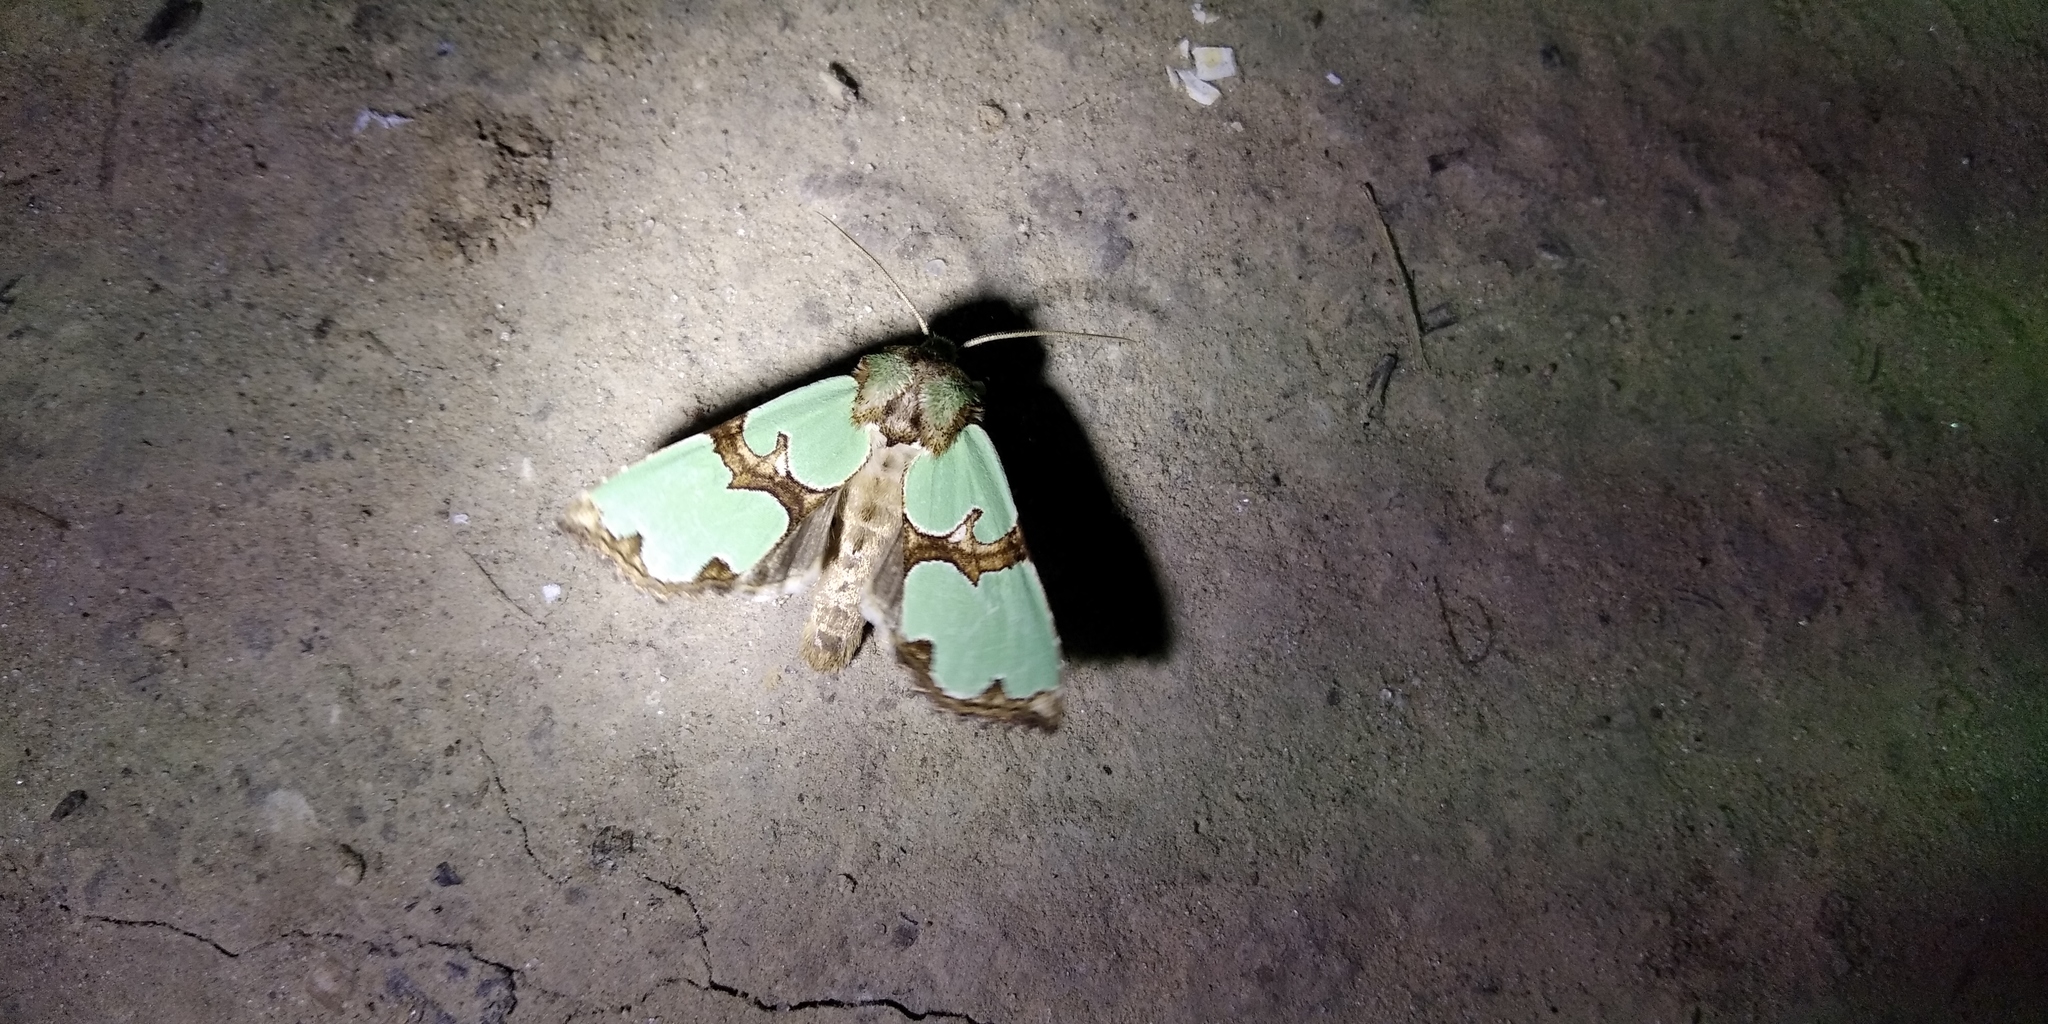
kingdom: Animalia
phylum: Arthropoda
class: Insecta
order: Lepidoptera
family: Noctuidae
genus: Staurophora
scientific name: Staurophora celsia
